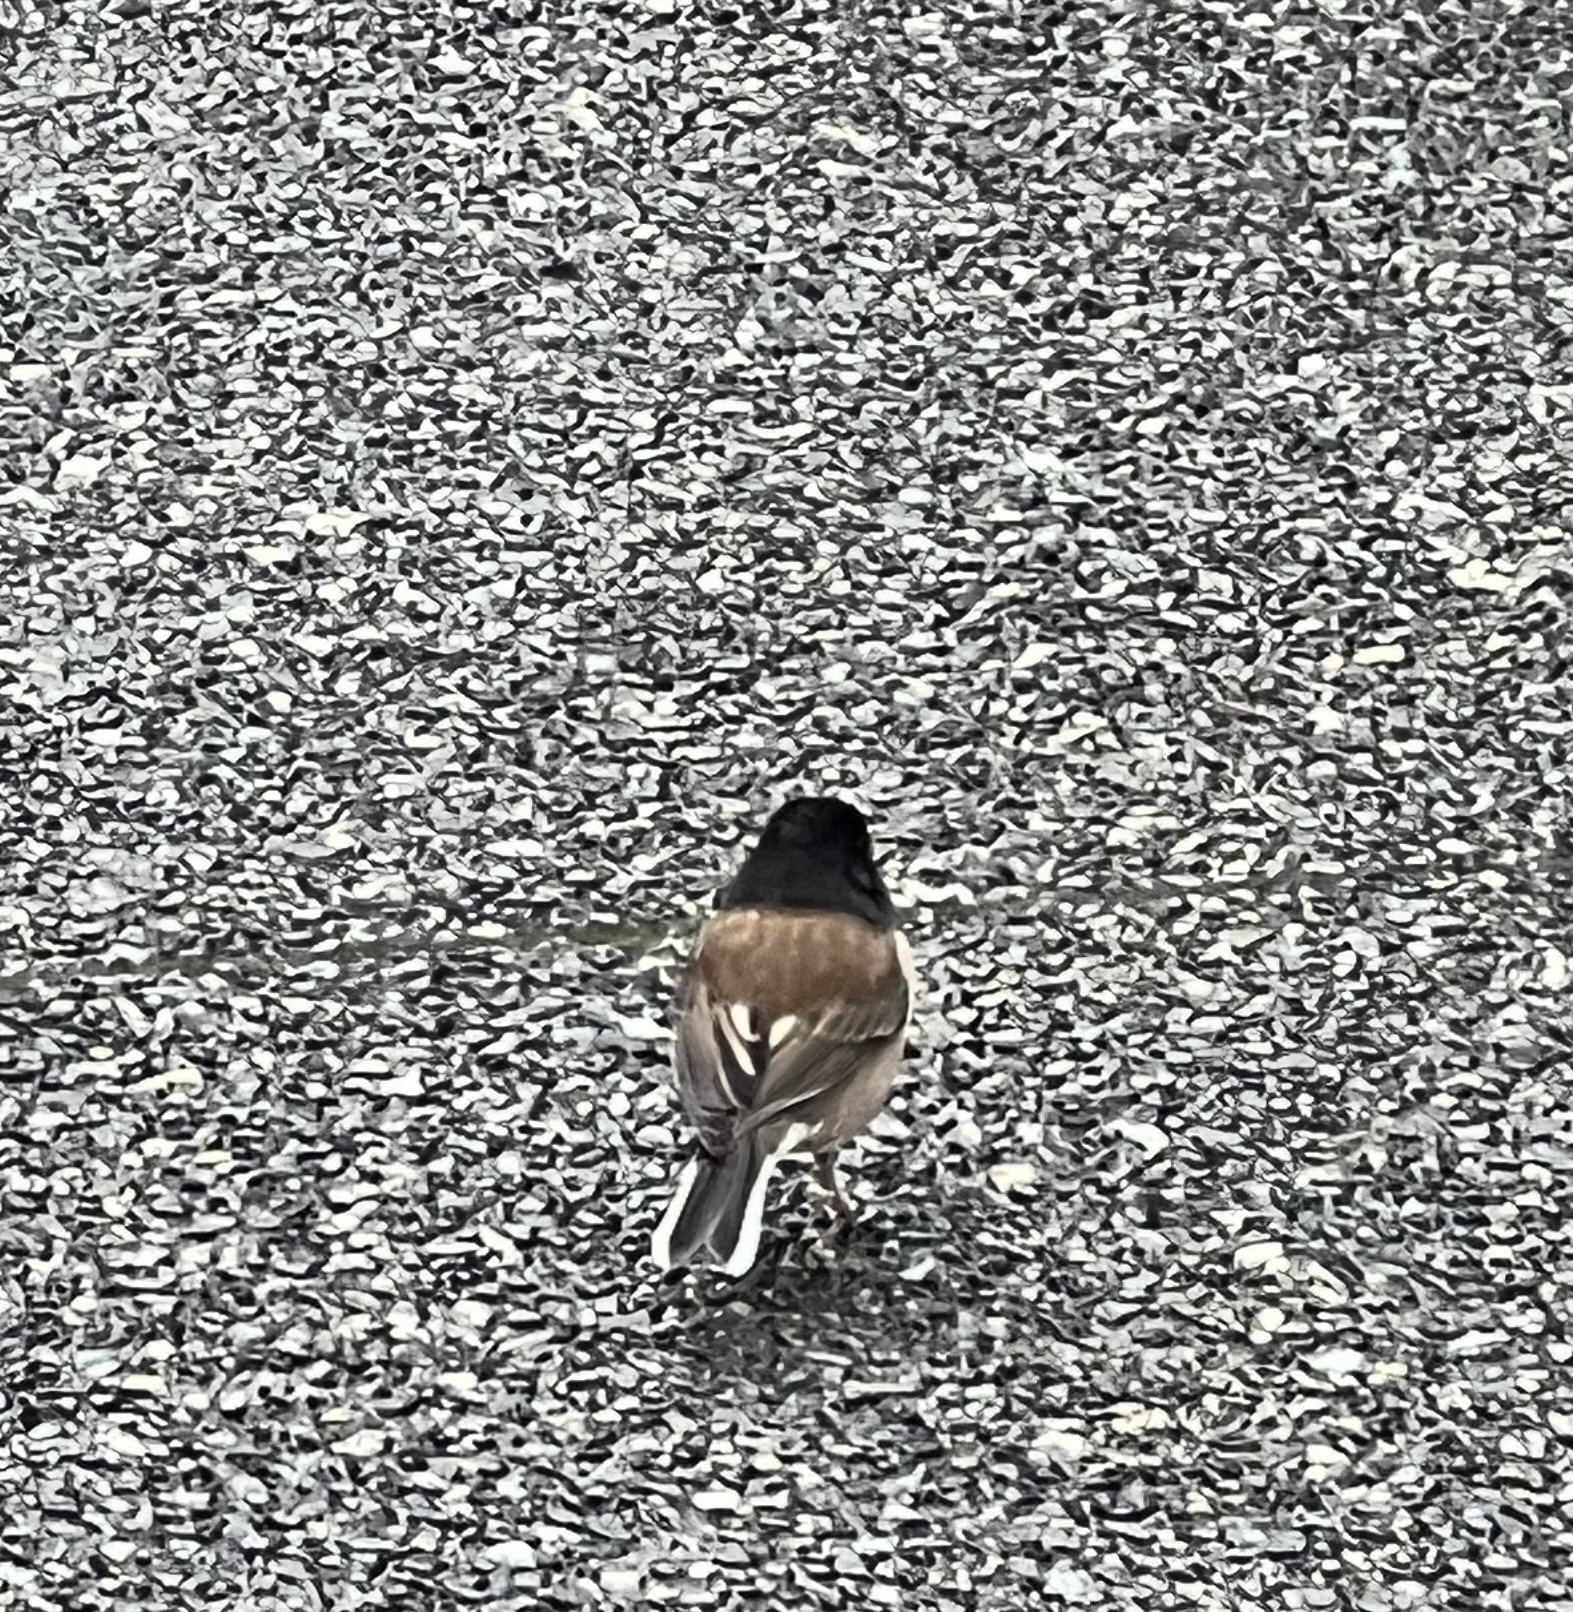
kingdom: Animalia
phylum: Chordata
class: Aves
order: Passeriformes
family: Passerellidae
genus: Junco
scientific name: Junco hyemalis
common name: Dark-eyed junco
